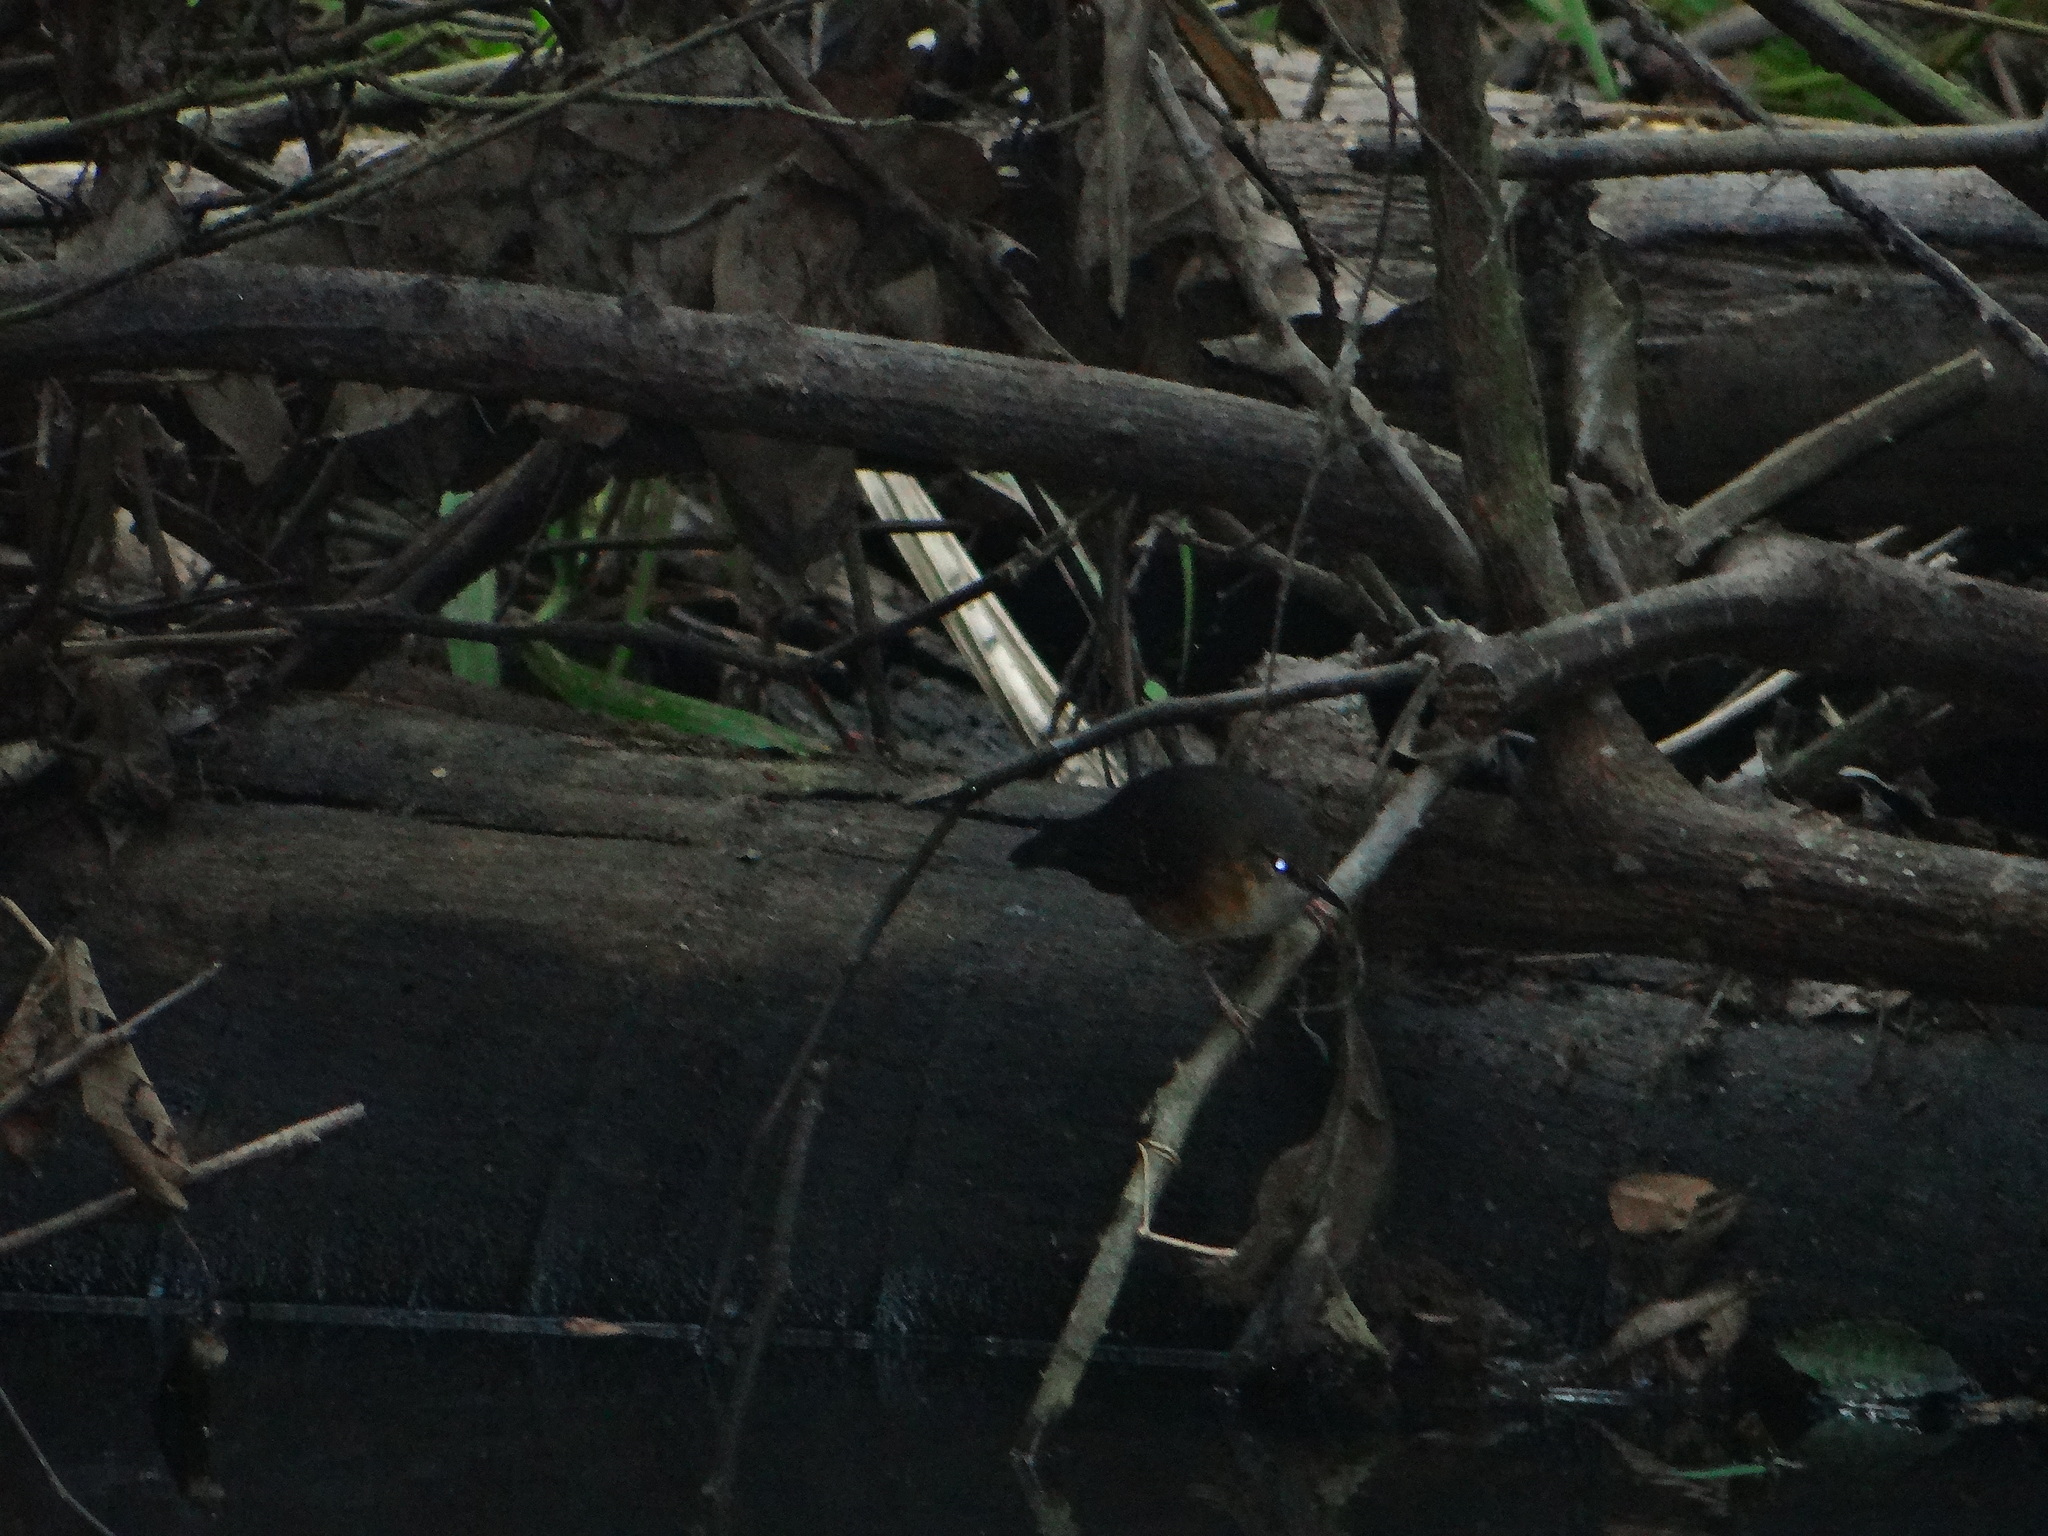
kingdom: Animalia
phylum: Chordata
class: Aves
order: Passeriformes
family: Thamnophilidae
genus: Sclateria
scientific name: Sclateria naevia
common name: Silvered antbird
